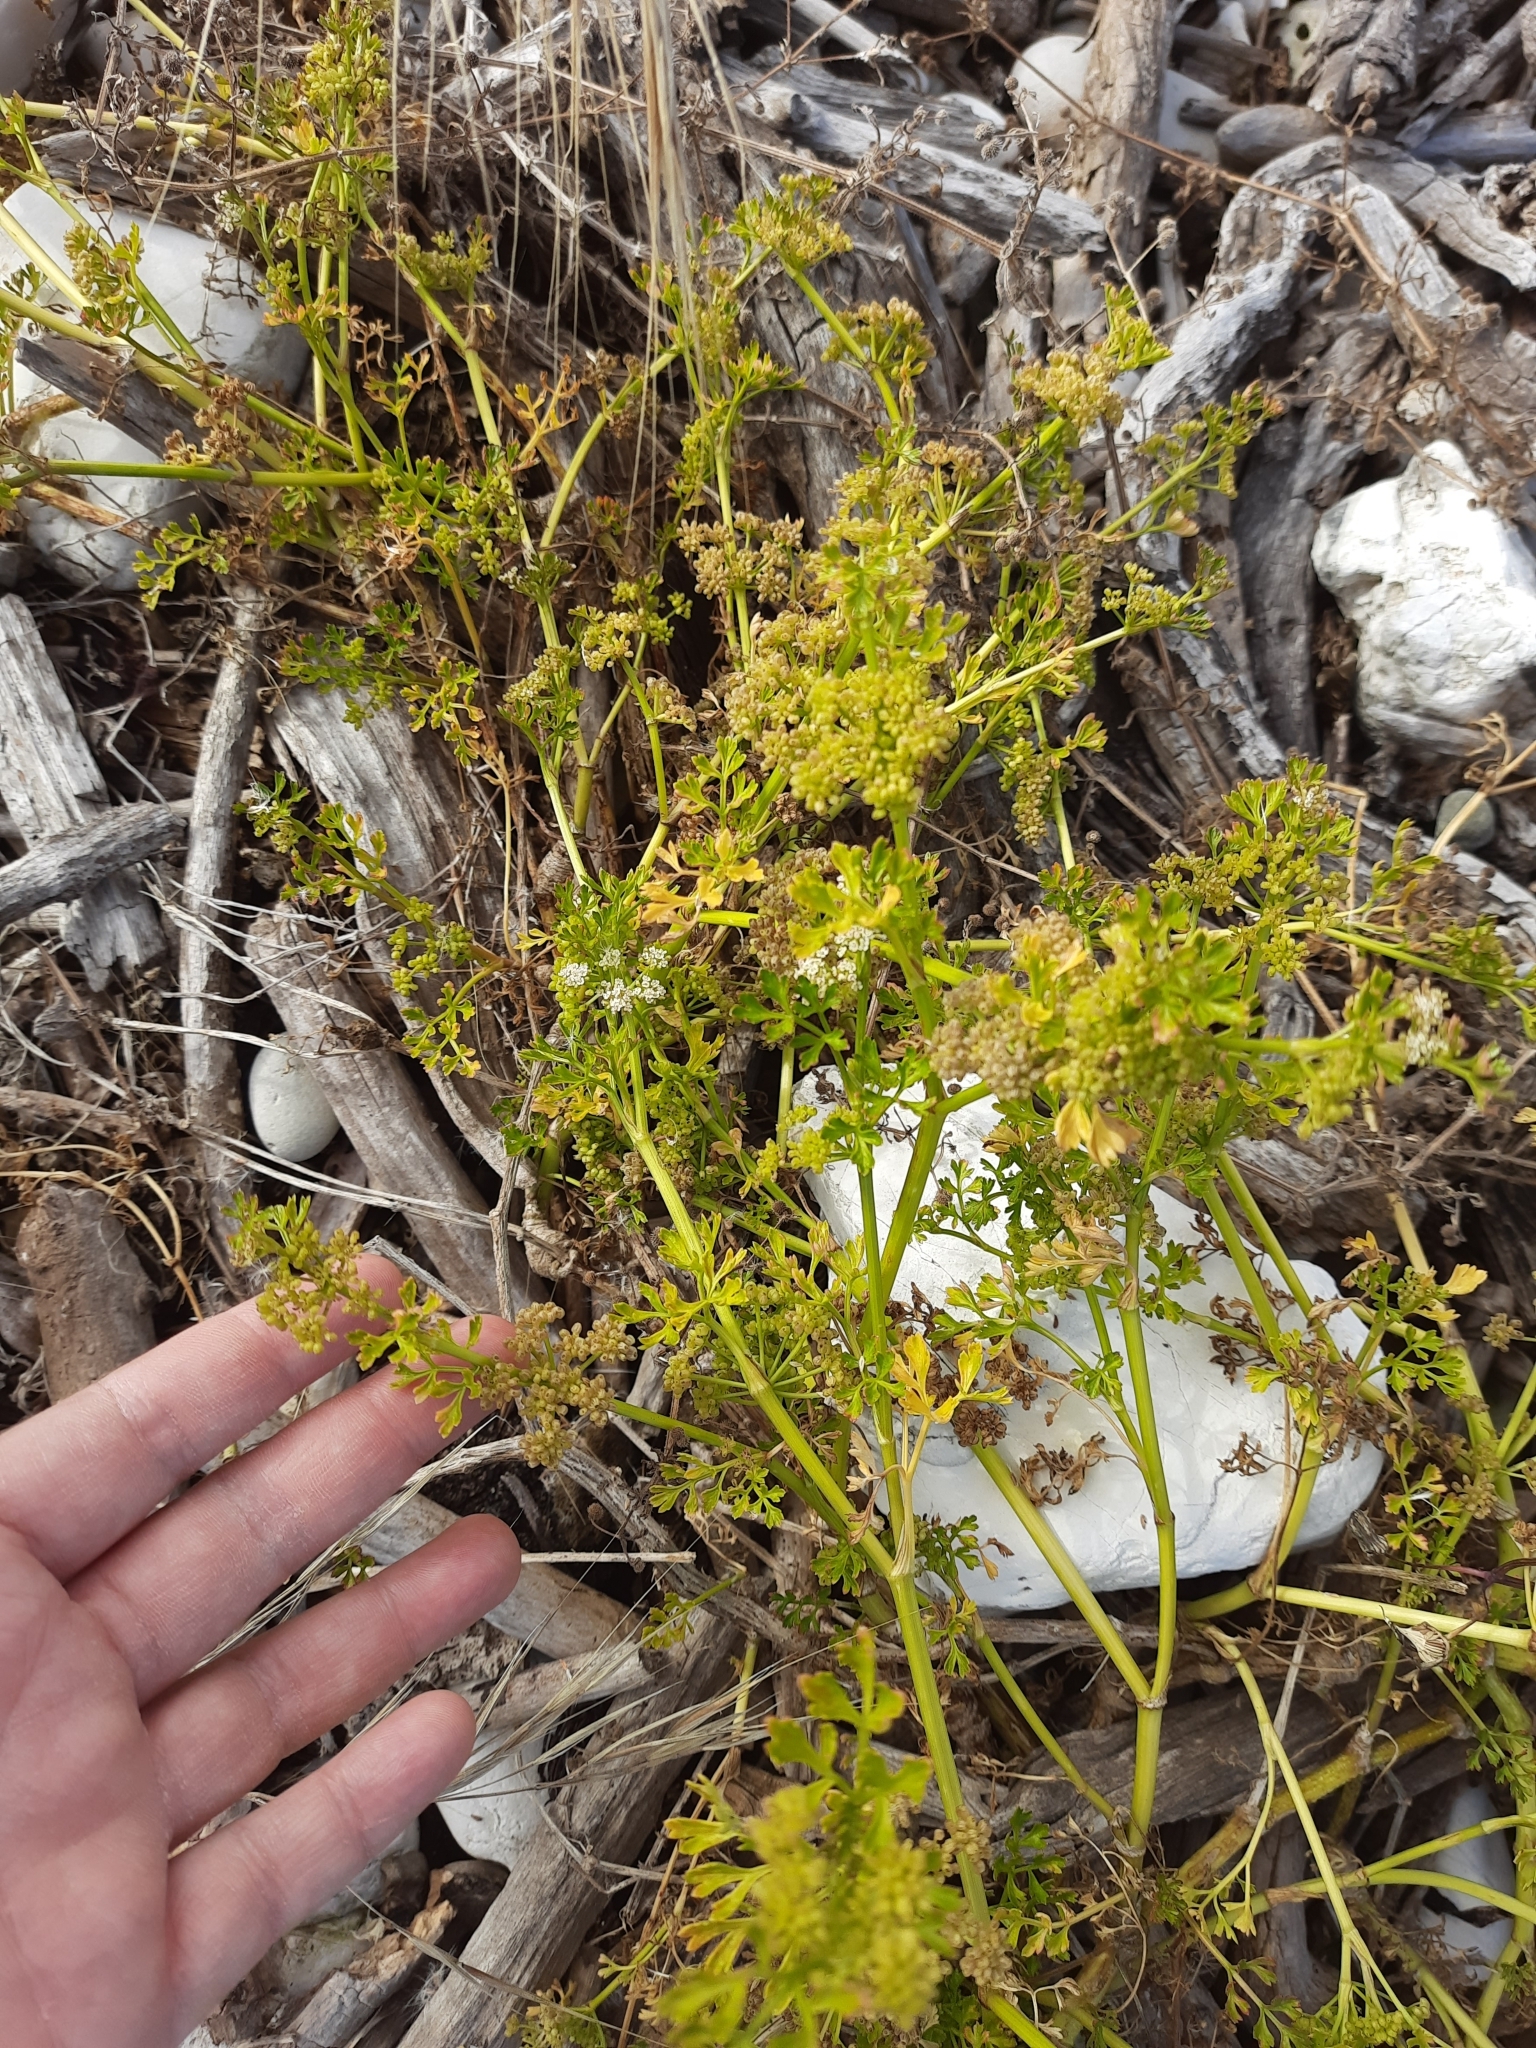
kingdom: Plantae
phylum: Tracheophyta
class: Magnoliopsida
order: Apiales
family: Apiaceae
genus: Apium
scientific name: Apium prostratum
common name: Prostrate marshwort
